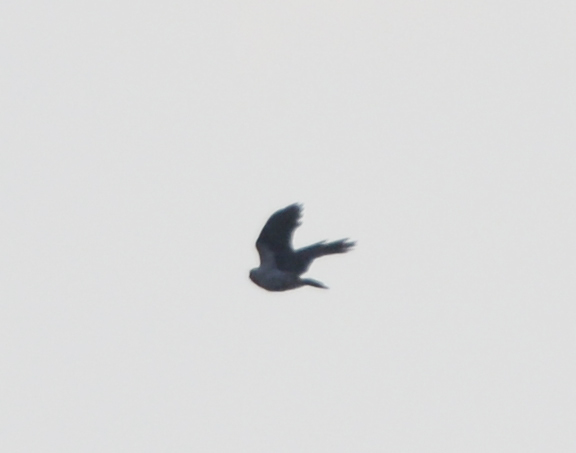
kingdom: Animalia
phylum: Chordata
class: Aves
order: Passeriformes
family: Corvidae
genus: Corvus
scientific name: Corvus cornix
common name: Hooded crow
